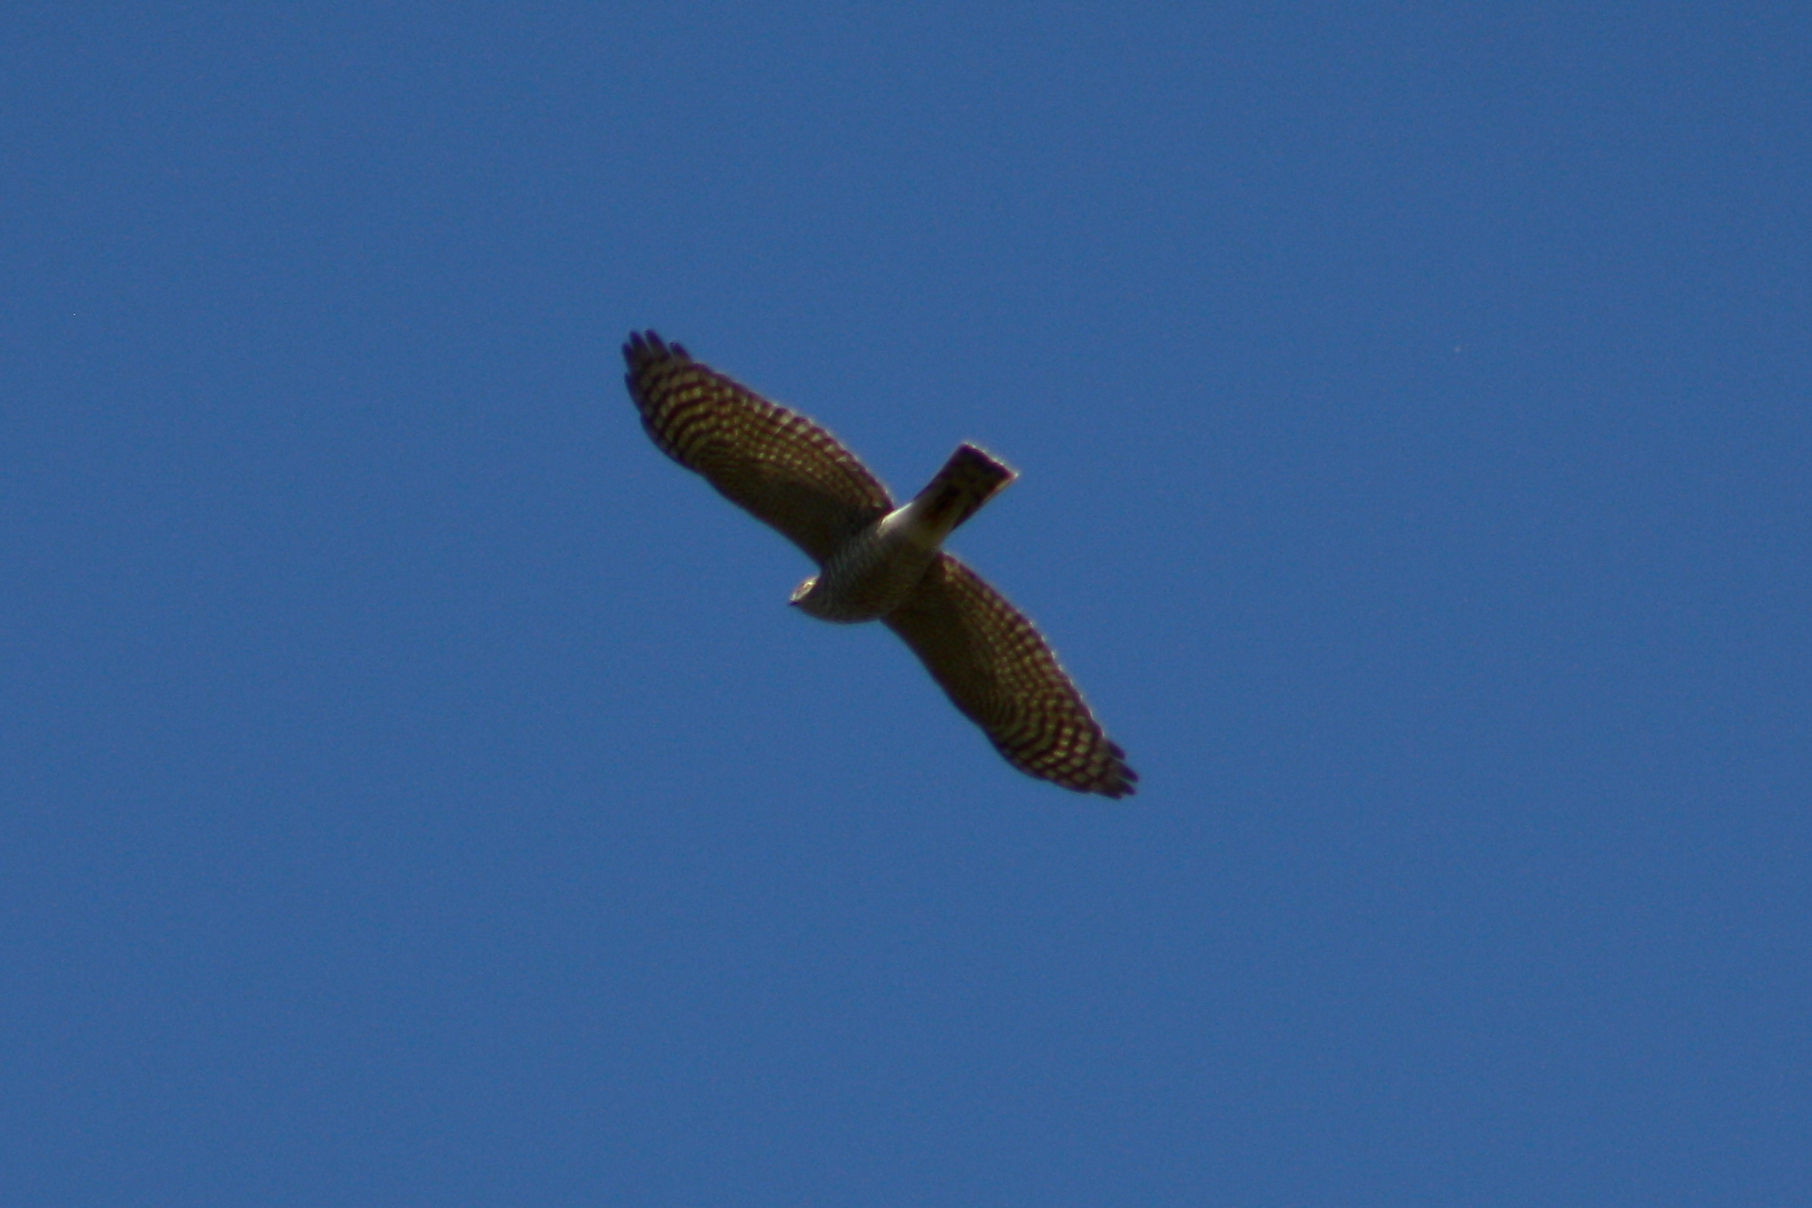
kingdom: Animalia
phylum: Chordata
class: Aves
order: Accipitriformes
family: Accipitridae
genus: Accipiter
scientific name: Accipiter nisus
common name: Eurasian sparrowhawk
